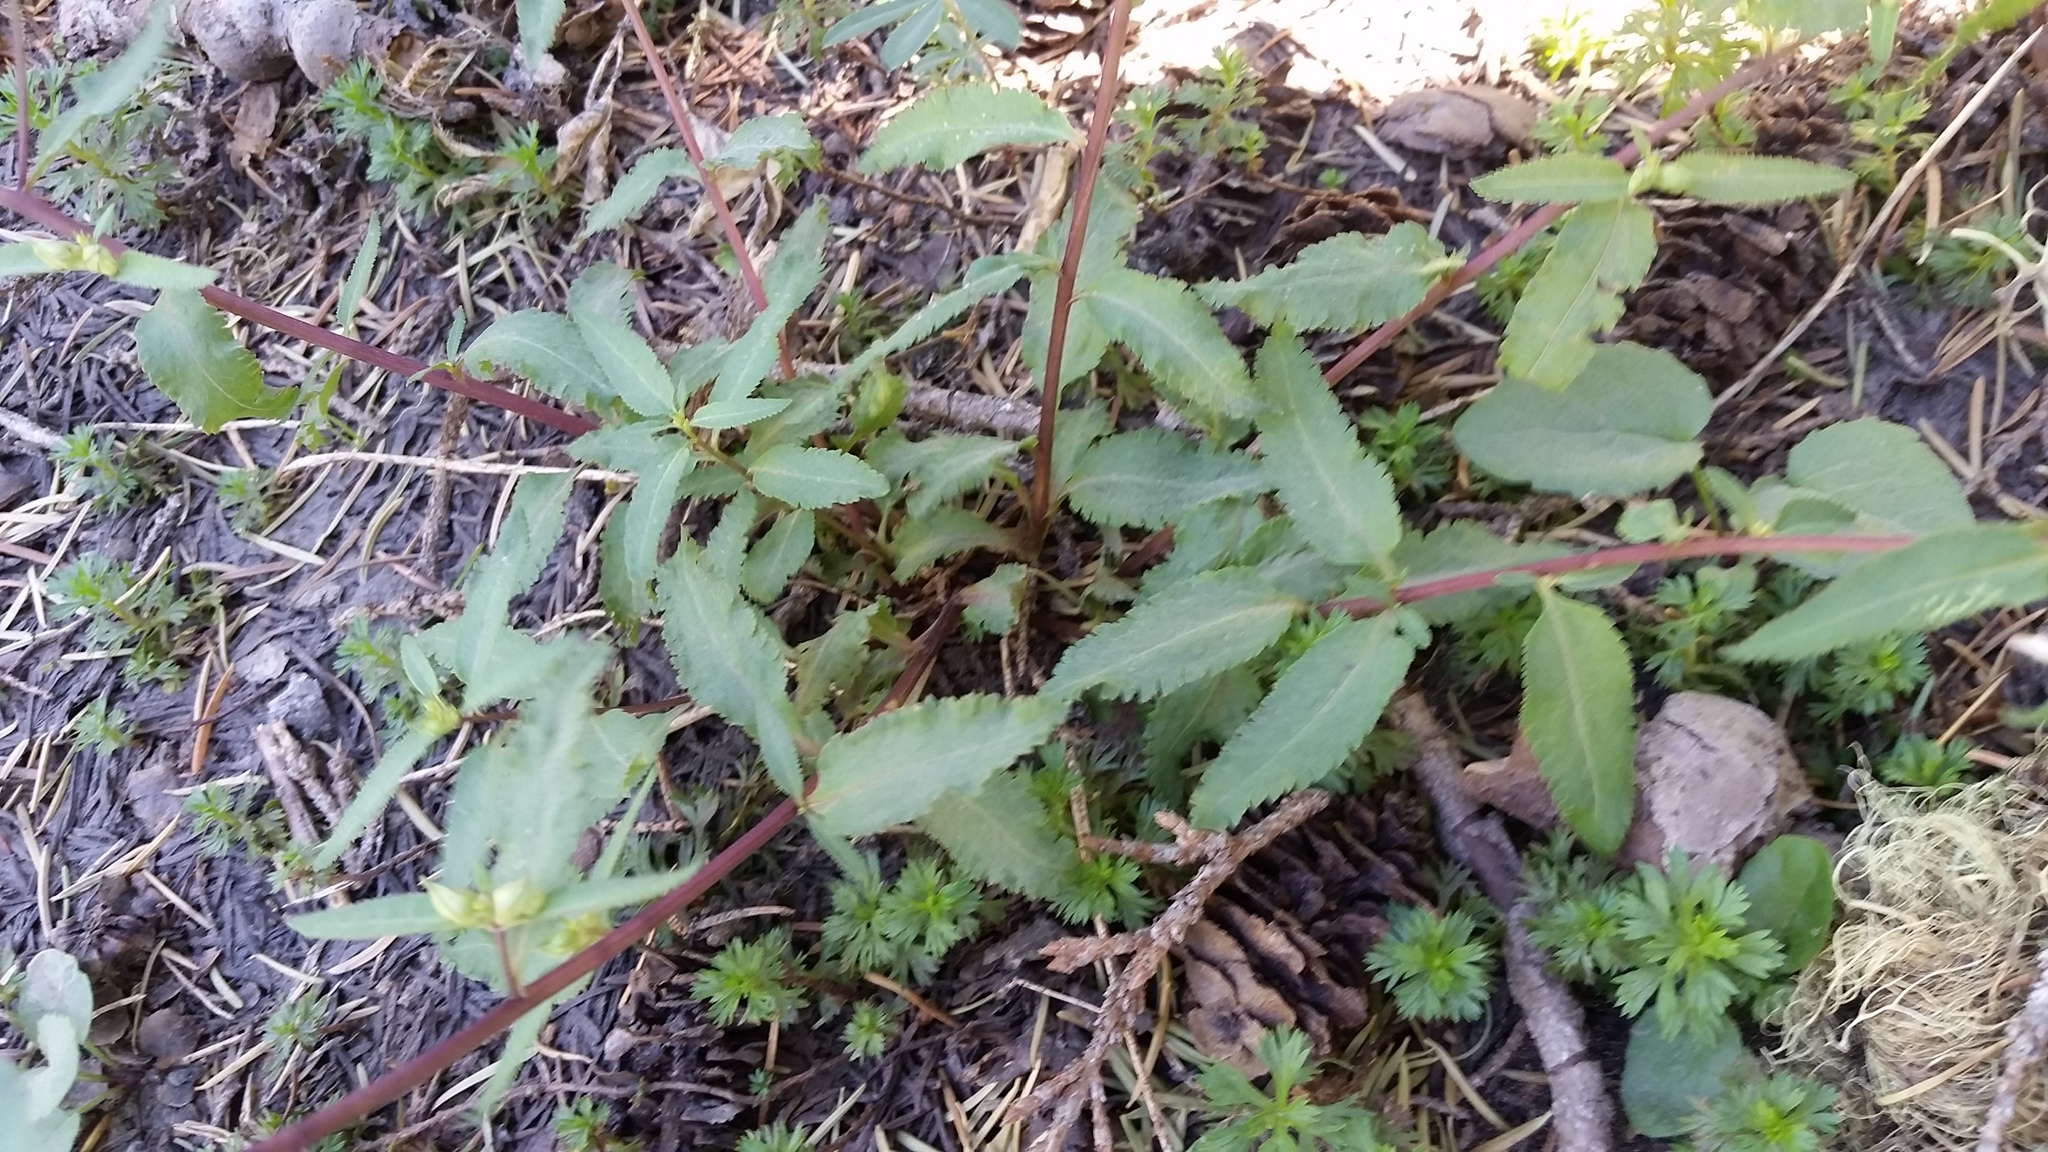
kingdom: Plantae
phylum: Tracheophyta
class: Magnoliopsida
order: Lamiales
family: Orobanchaceae
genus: Pedicularis
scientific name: Pedicularis racemosa
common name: Leafy lousewort
